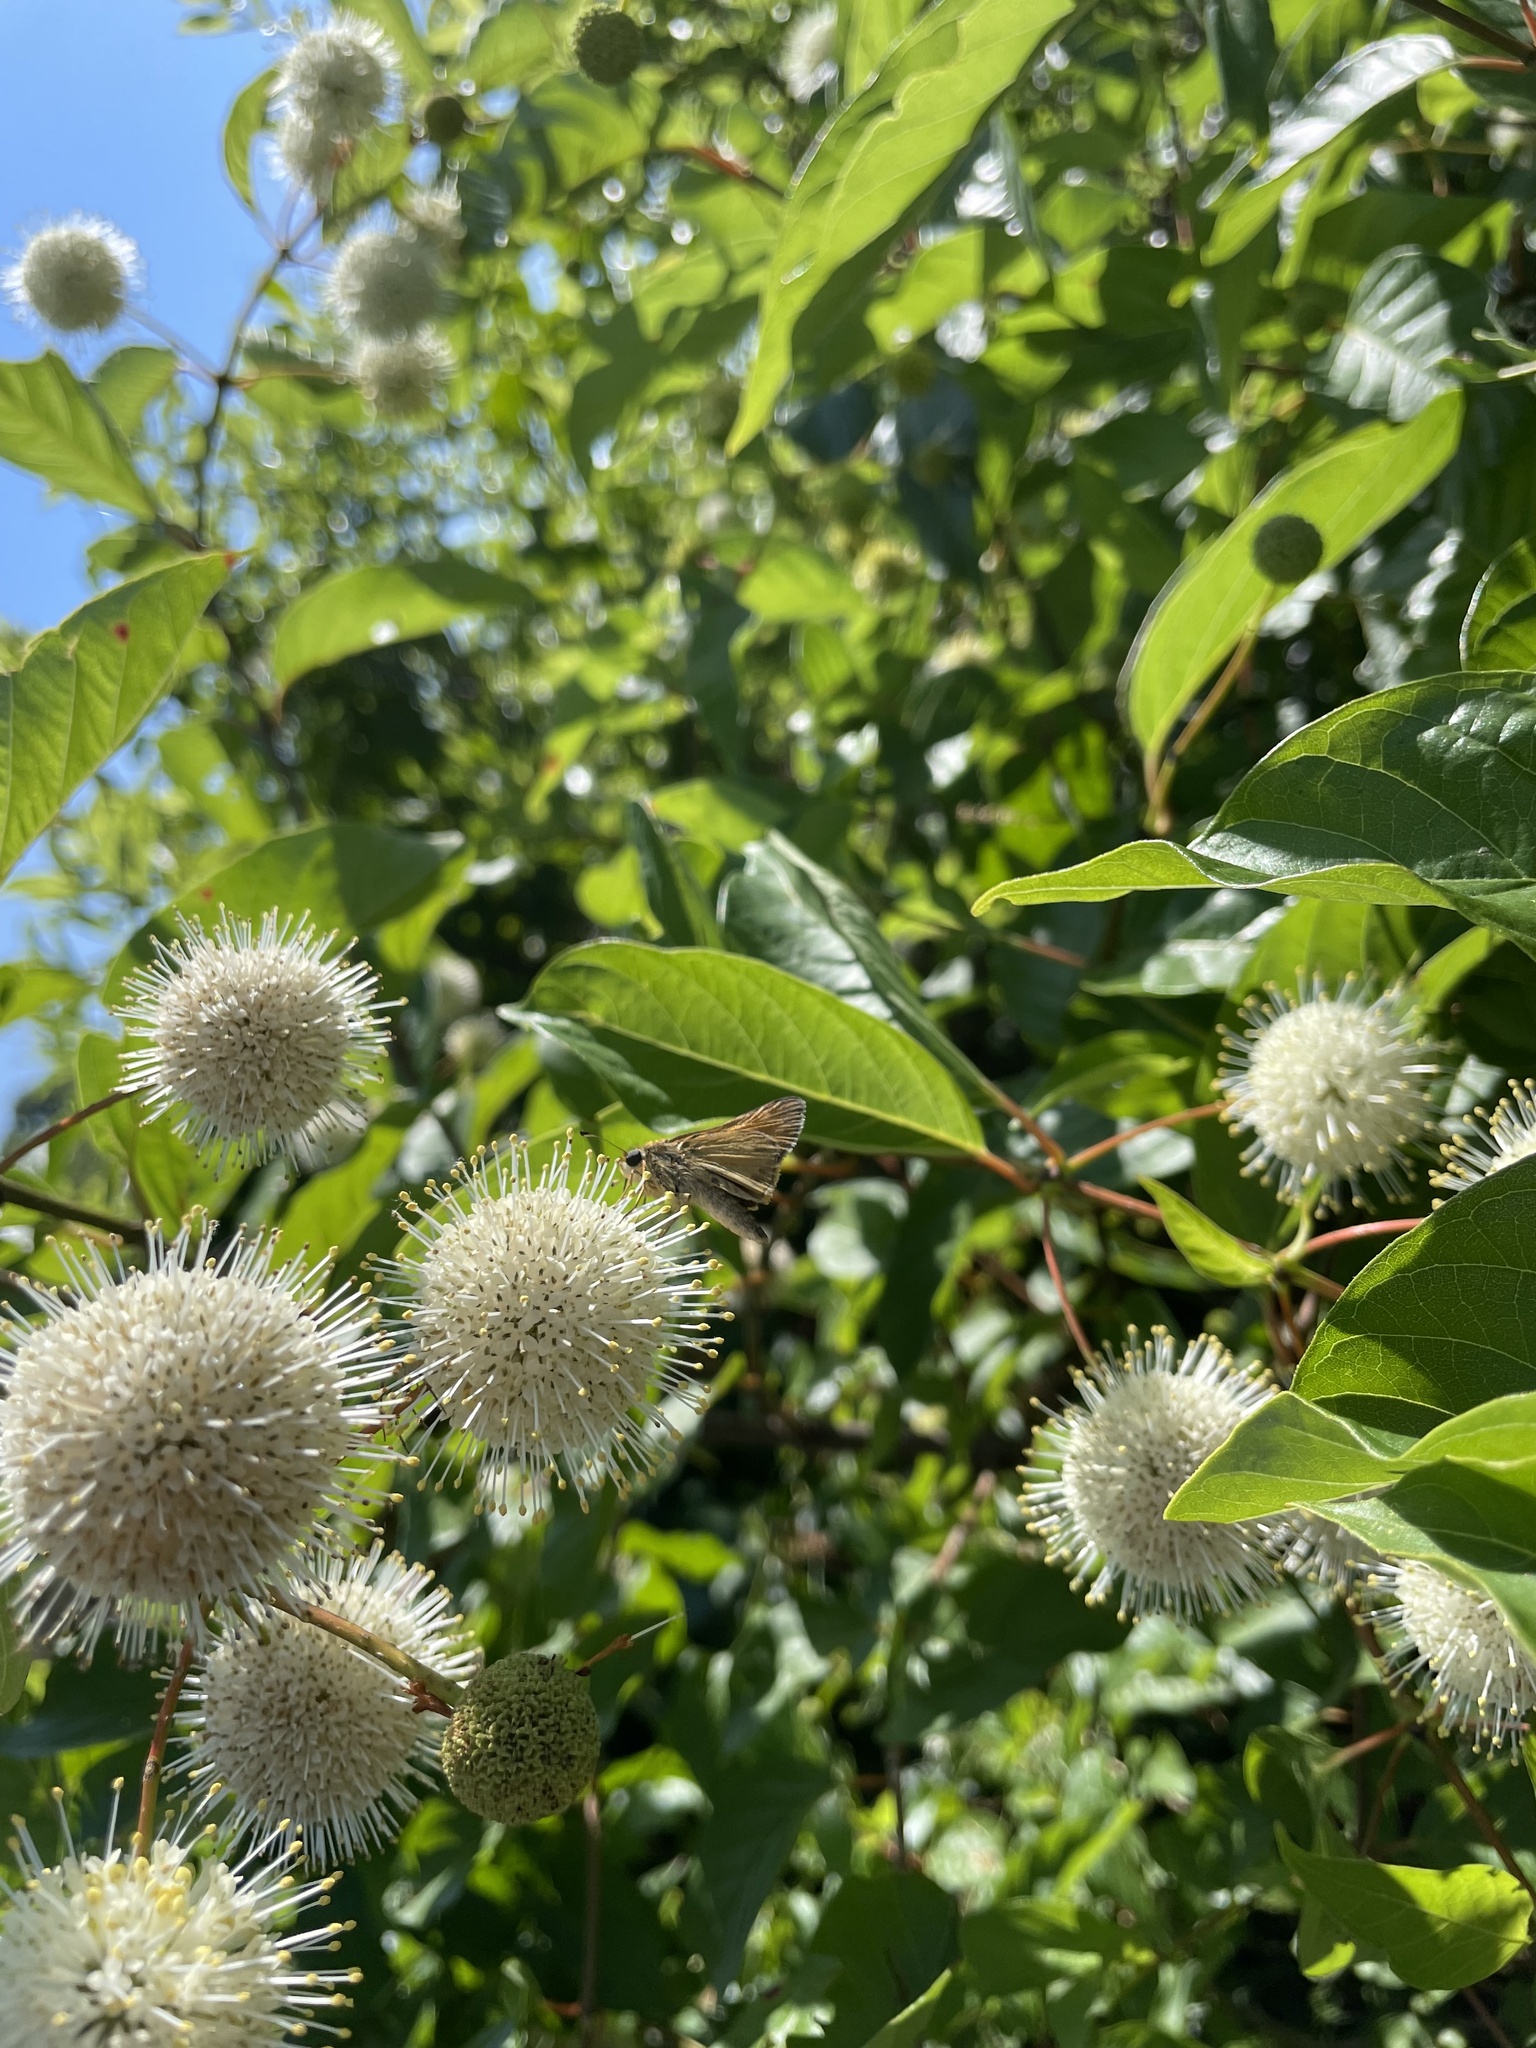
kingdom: Animalia
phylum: Arthropoda
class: Insecta
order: Lepidoptera
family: Hesperiidae
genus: Polites
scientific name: Polites themistocles
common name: Tawny-edged skipper
